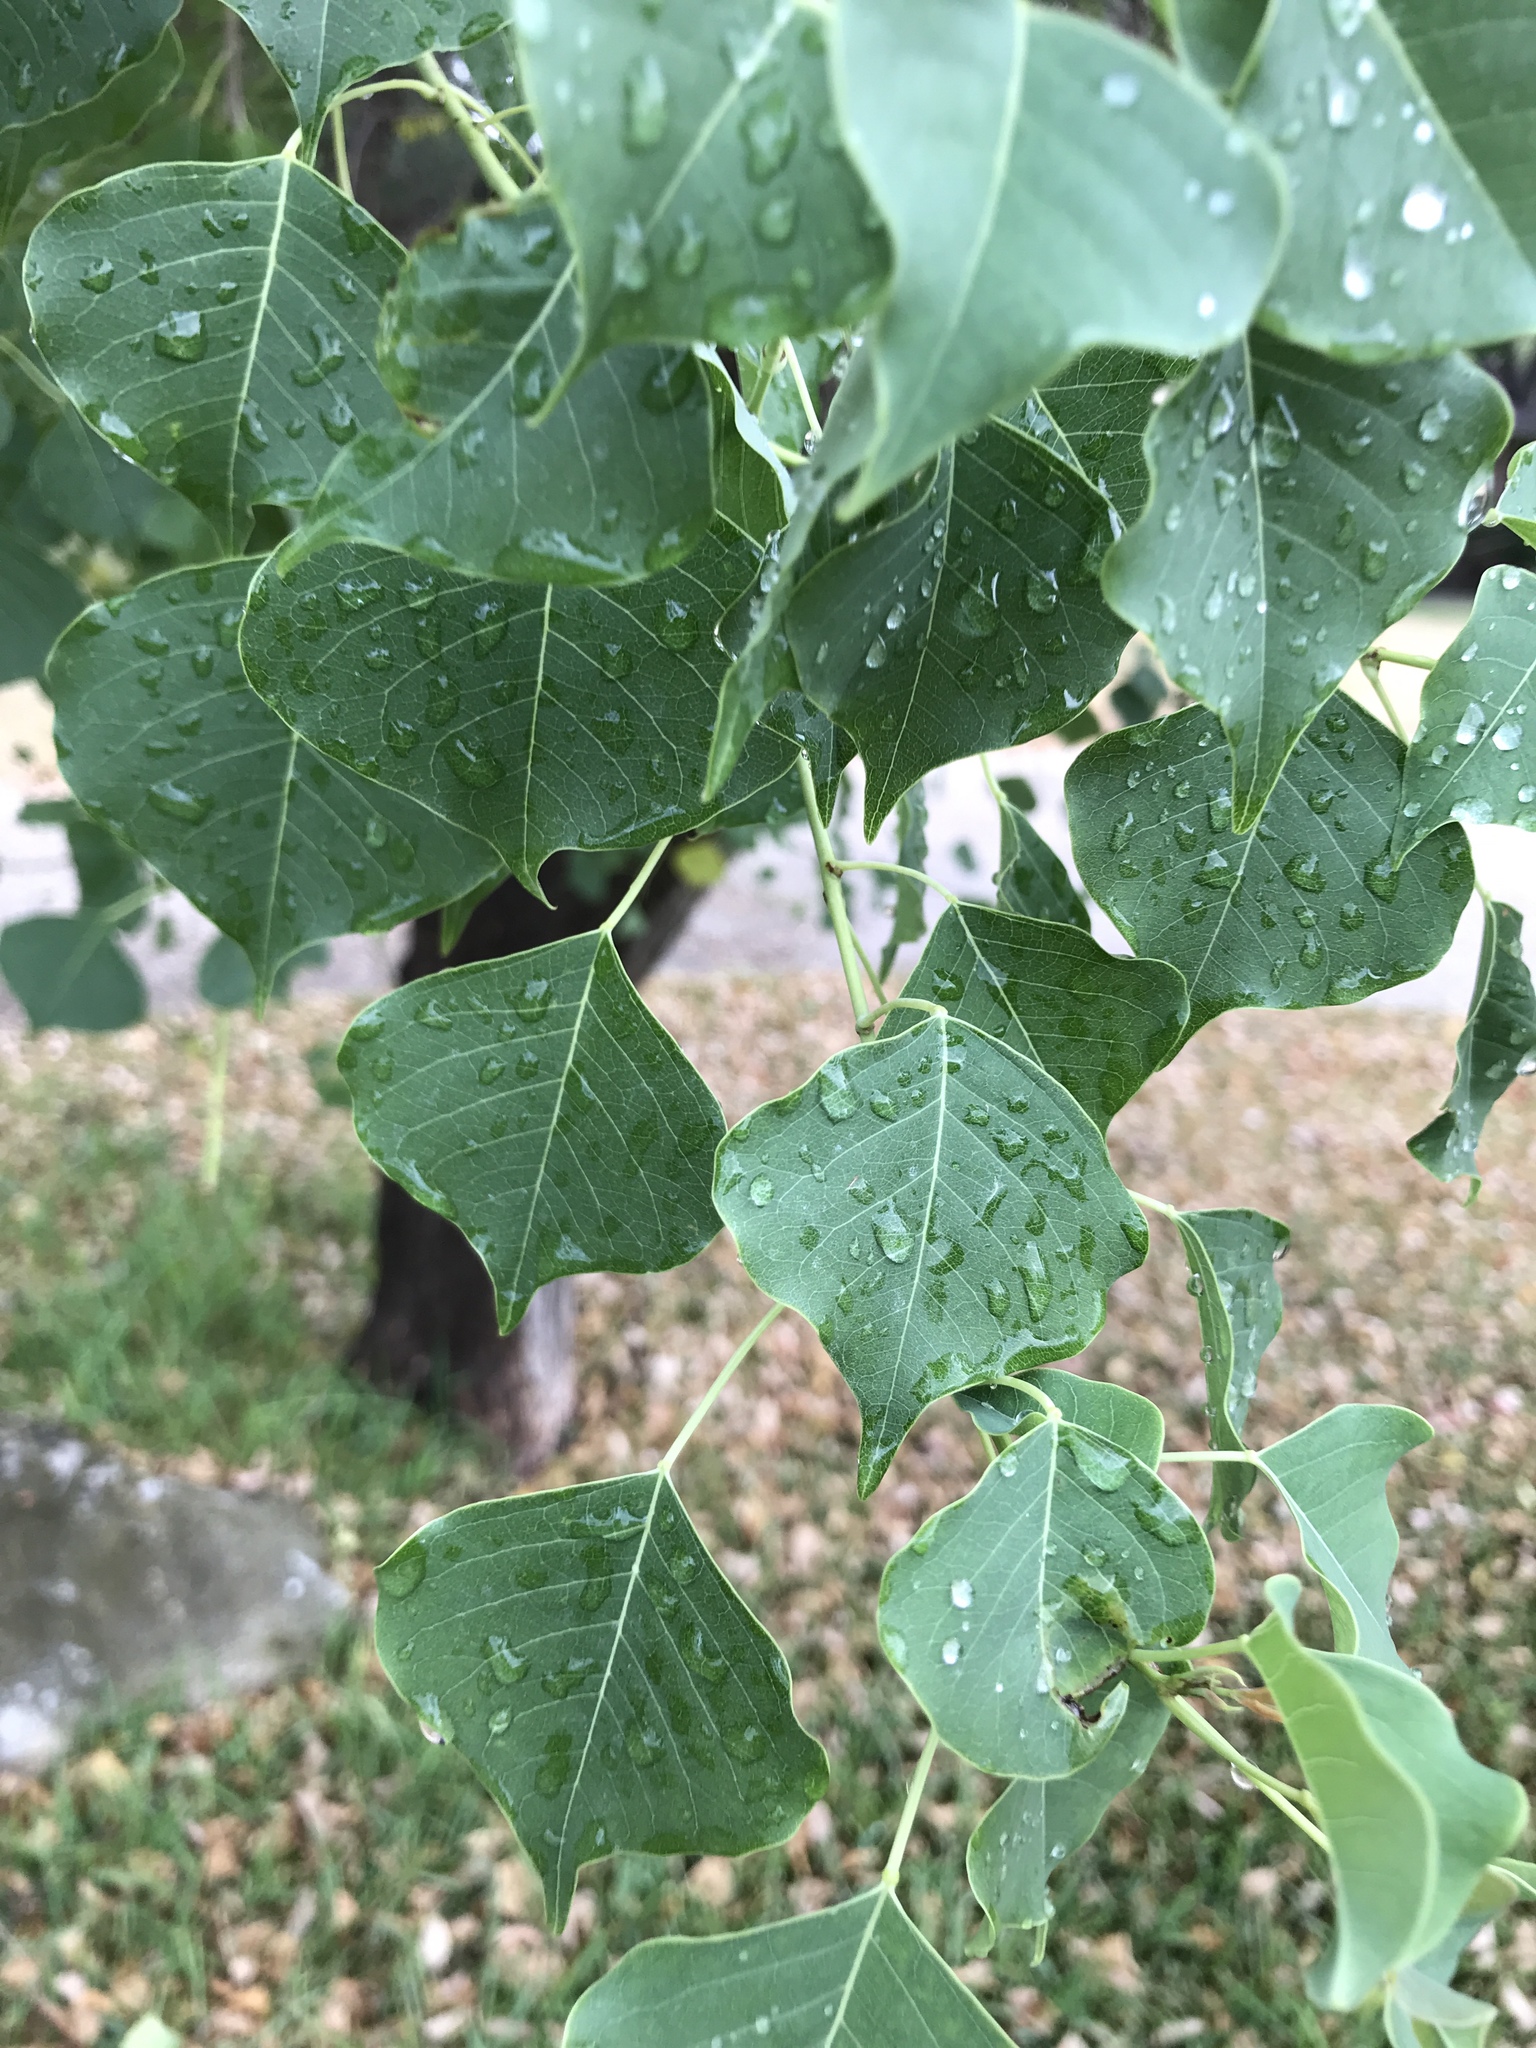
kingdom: Plantae
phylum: Tracheophyta
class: Magnoliopsida
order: Malpighiales
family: Euphorbiaceae
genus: Triadica
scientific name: Triadica sebifera
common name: Chinese tallow
